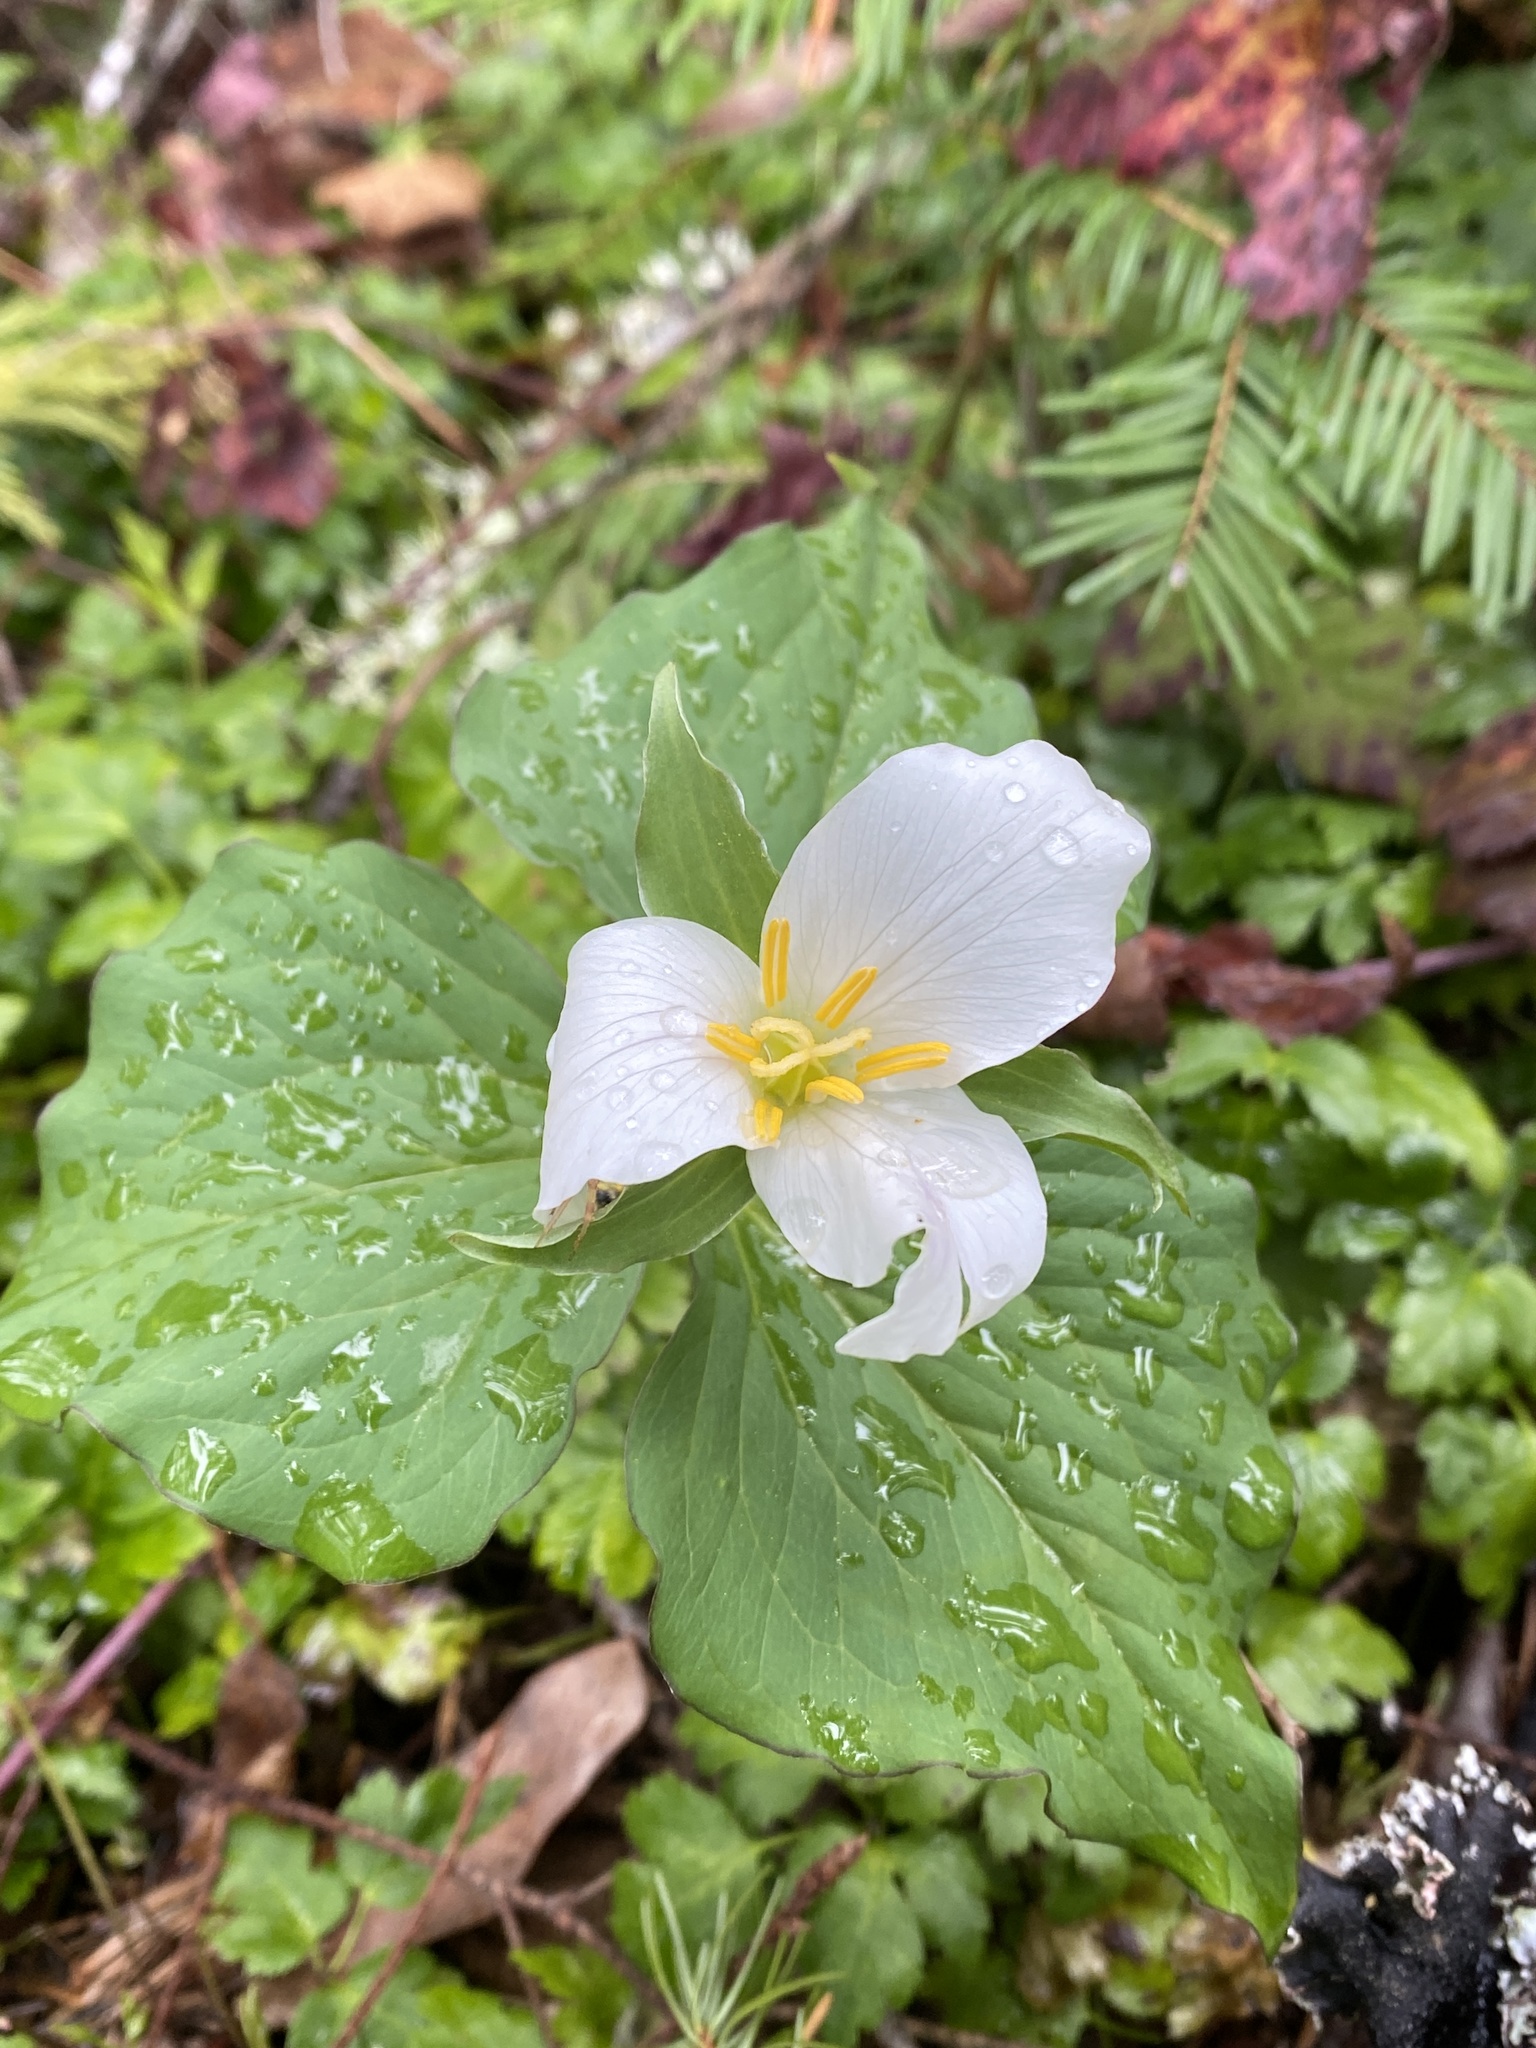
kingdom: Plantae
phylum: Tracheophyta
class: Liliopsida
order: Liliales
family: Melanthiaceae
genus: Trillium
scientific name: Trillium ovatum
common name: Pacific trillium
